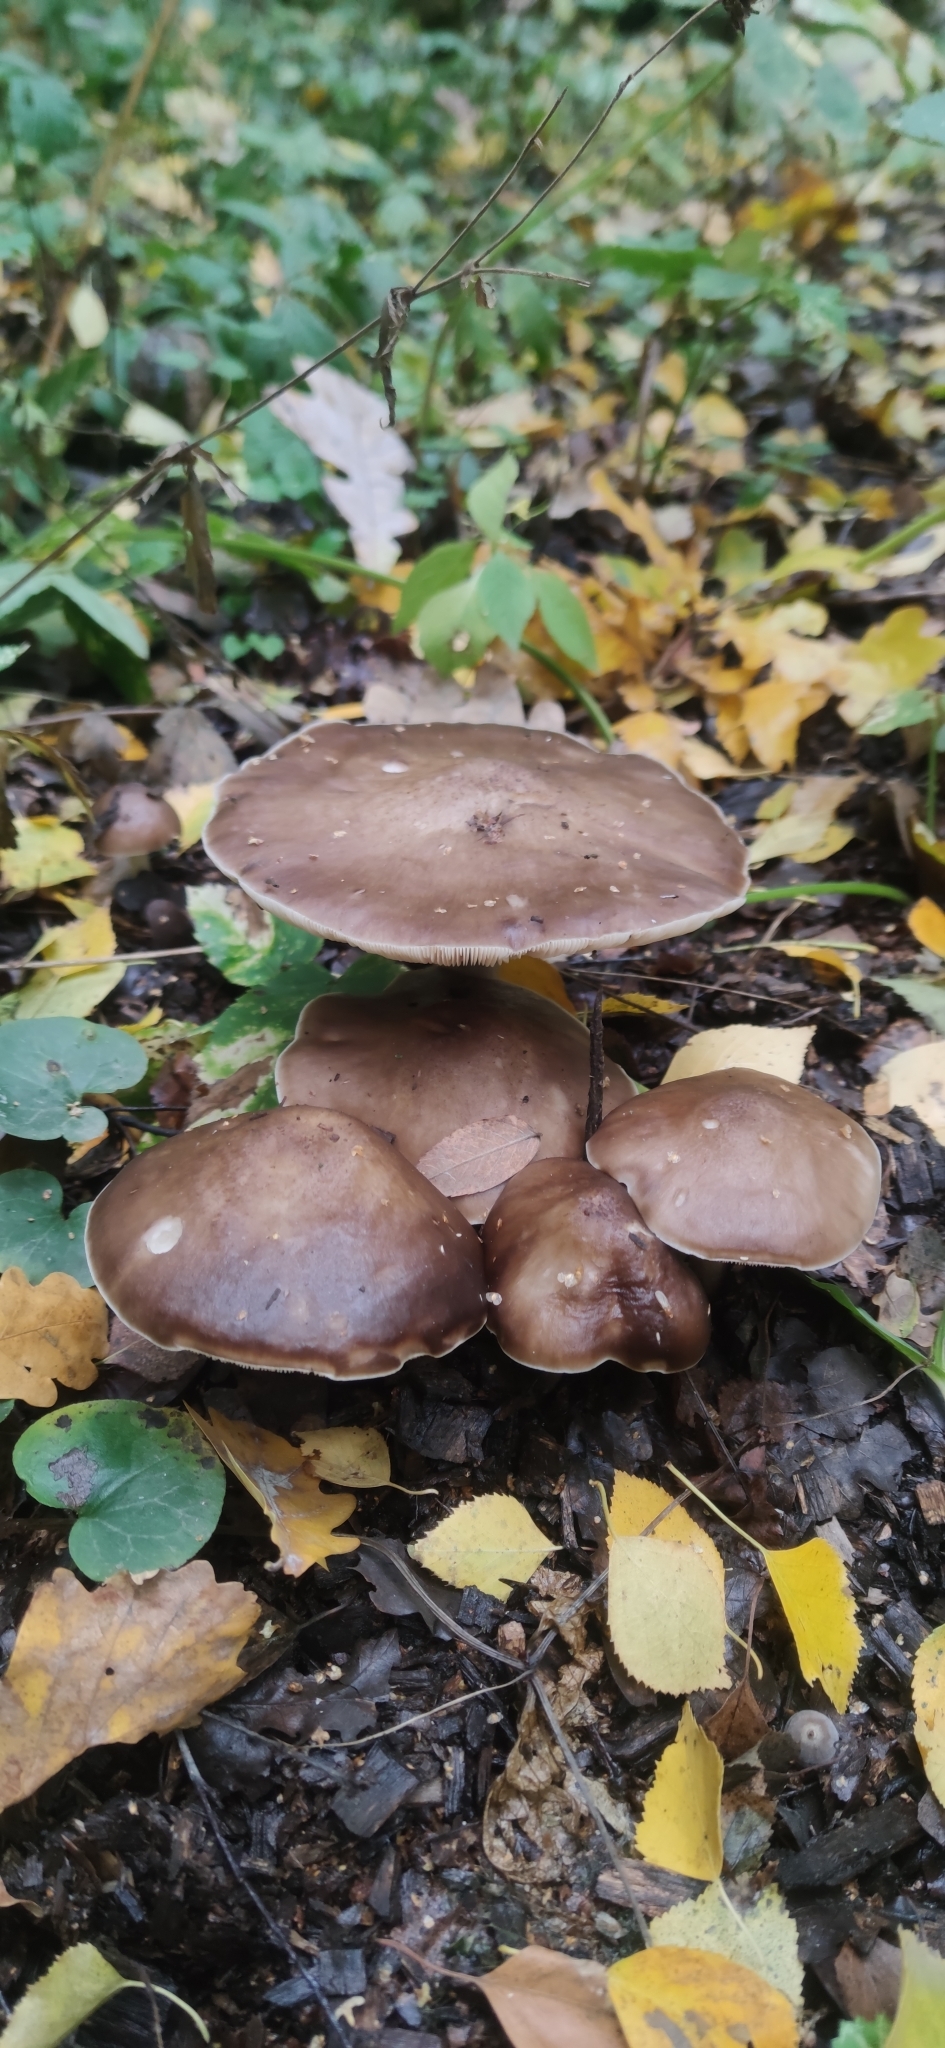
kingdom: Fungi
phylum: Basidiomycota
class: Agaricomycetes
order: Agaricales
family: Pluteaceae
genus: Pluteus
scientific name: Pluteus cervinus
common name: Deer shield
